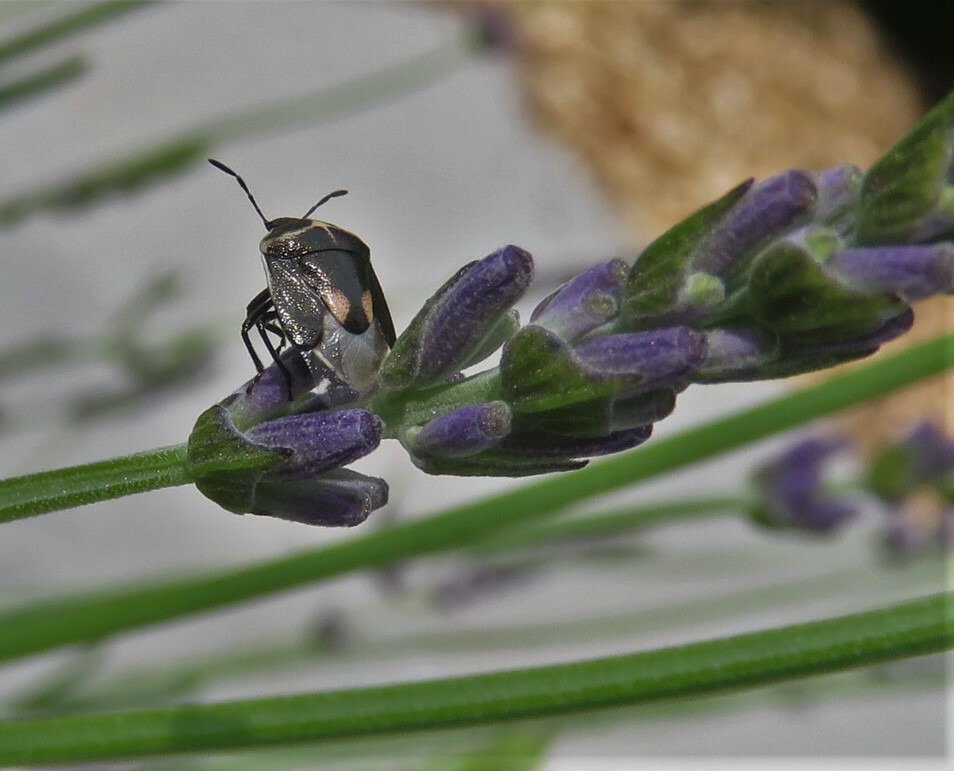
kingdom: Animalia
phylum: Arthropoda
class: Insecta
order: Hemiptera
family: Pentatomidae
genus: Cosmopepla
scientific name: Cosmopepla lintneriana
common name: Twice-stabbed stink bug
